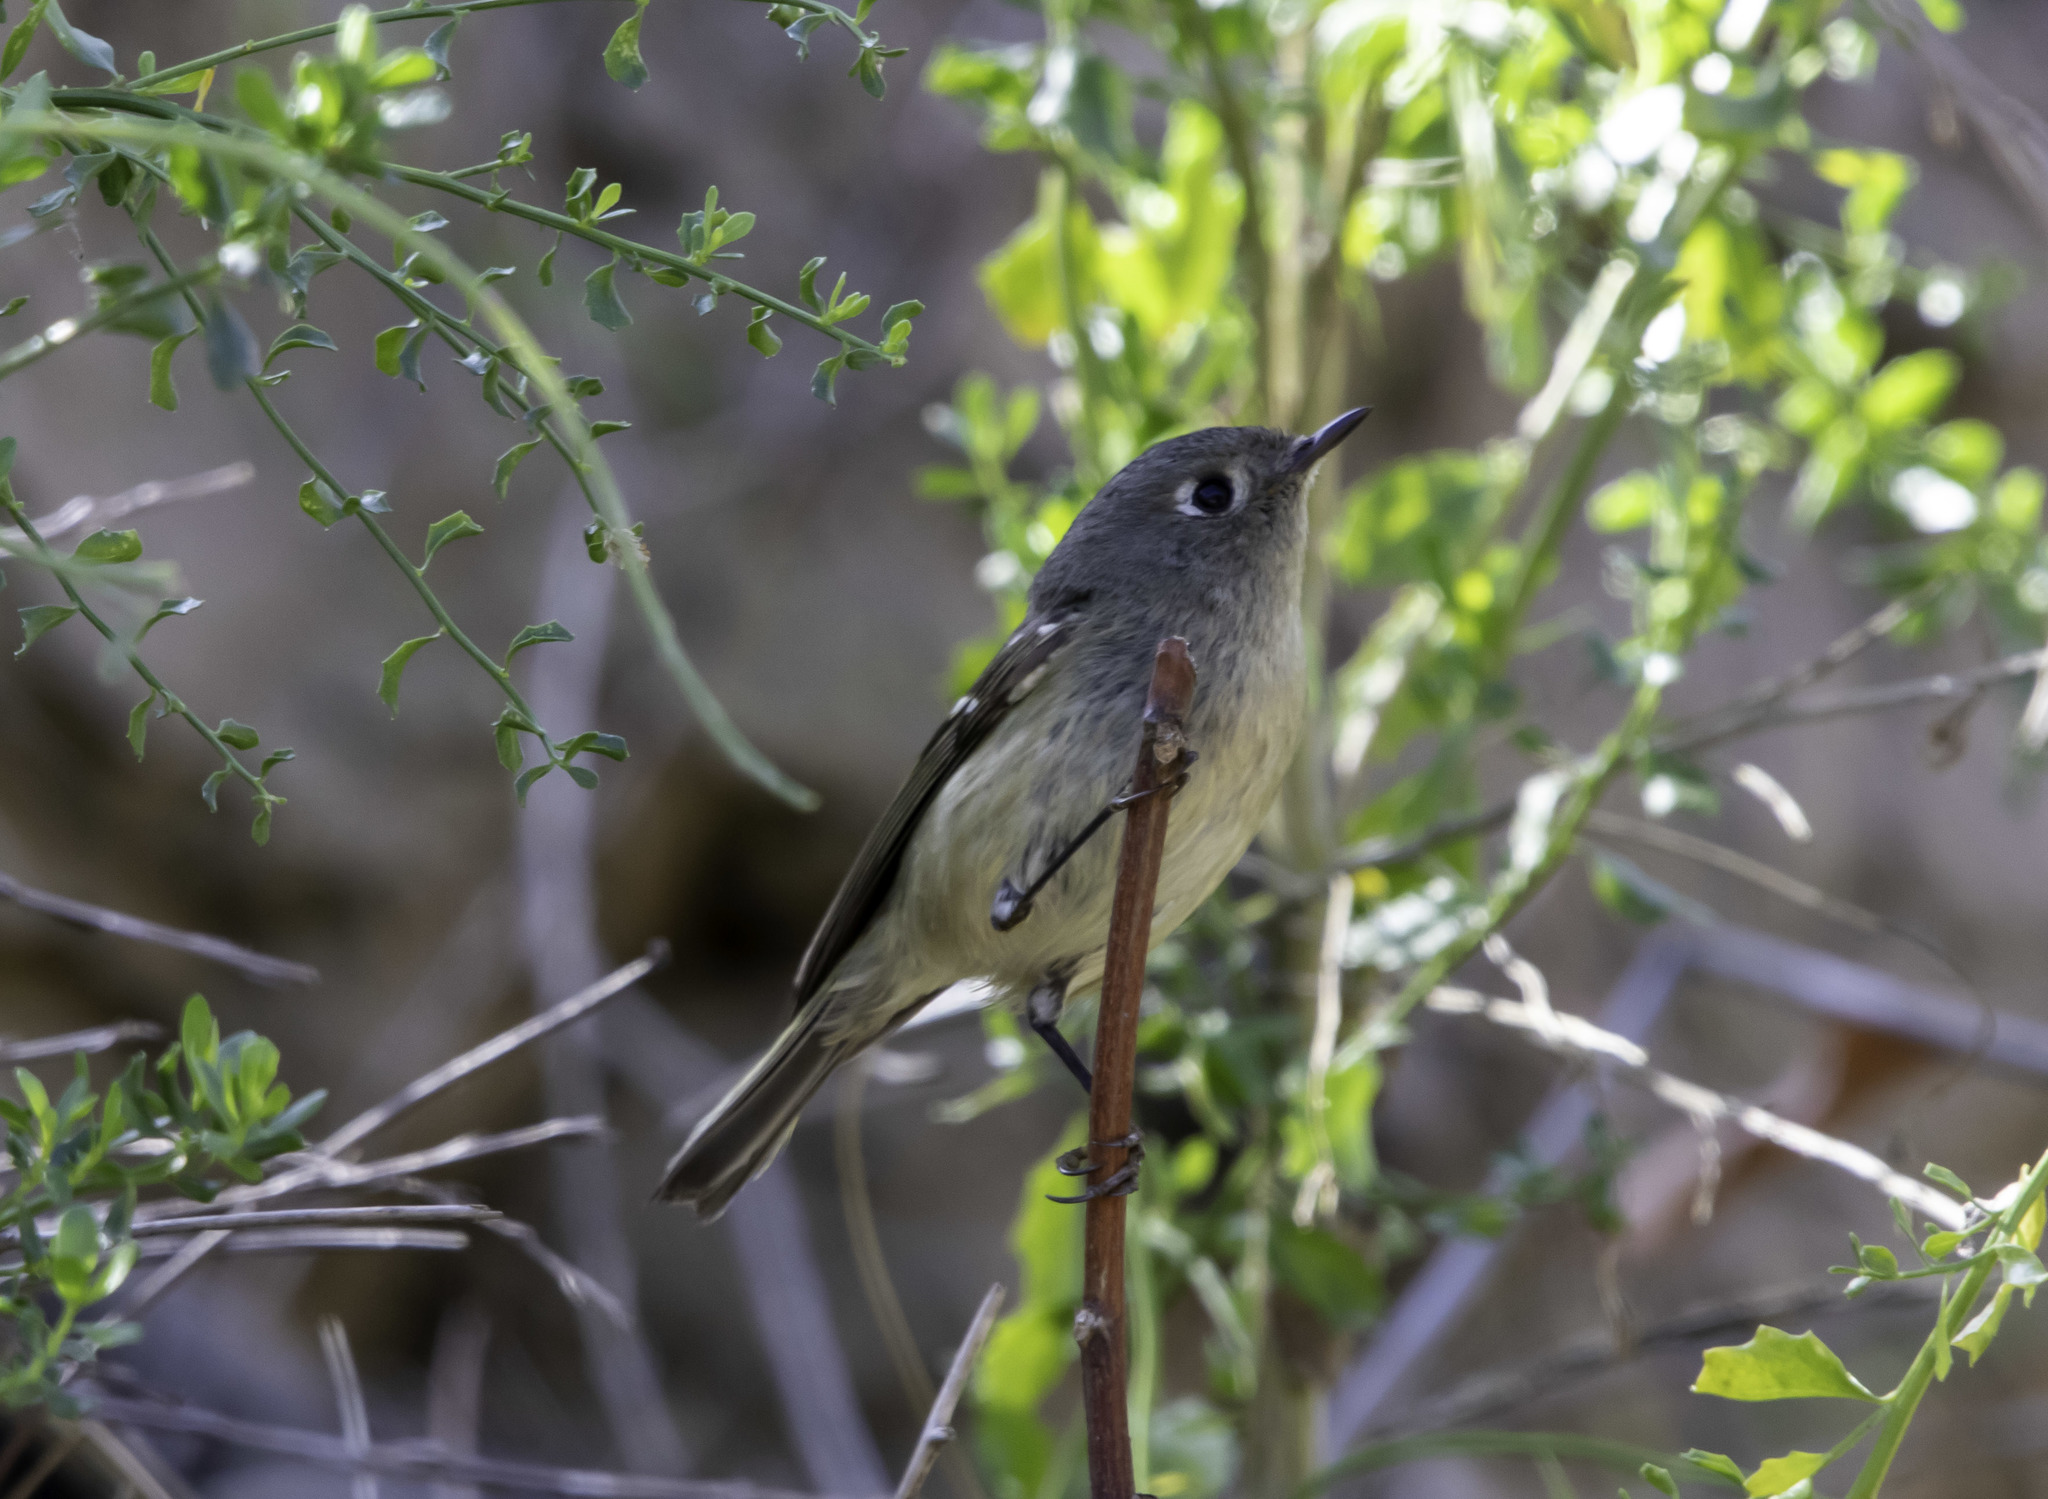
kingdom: Animalia
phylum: Chordata
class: Aves
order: Passeriformes
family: Regulidae
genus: Regulus
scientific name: Regulus calendula
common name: Ruby-crowned kinglet
